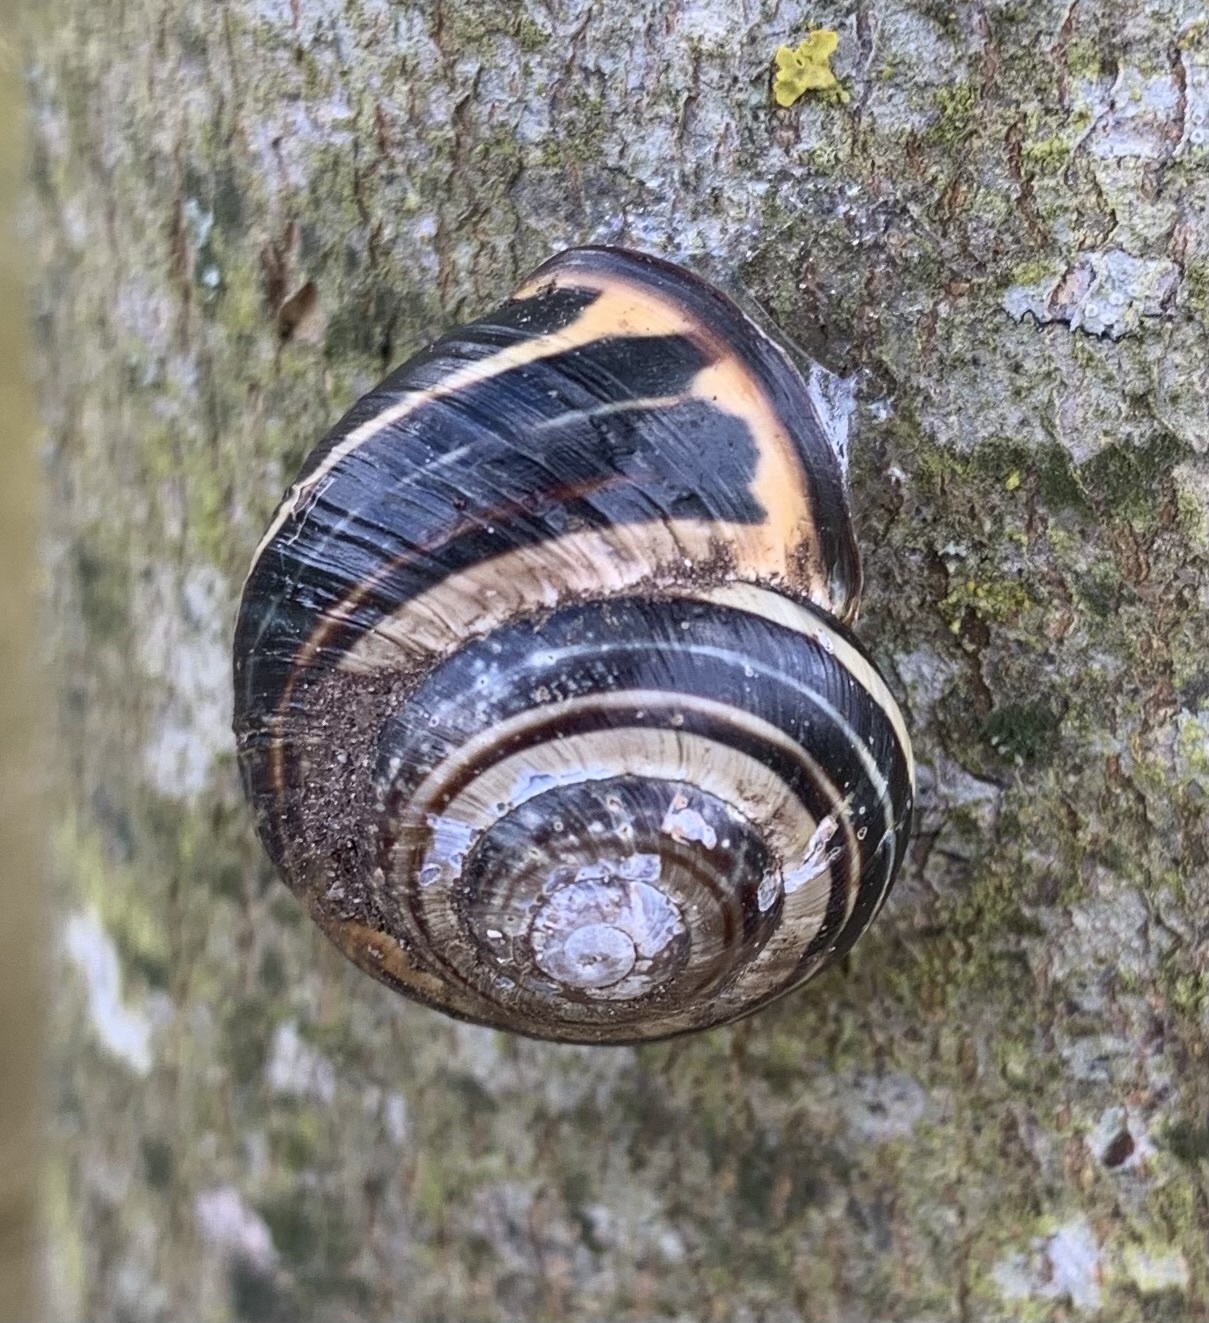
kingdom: Animalia
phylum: Mollusca
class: Gastropoda
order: Stylommatophora
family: Helicidae
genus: Cepaea
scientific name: Cepaea nemoralis
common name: Grovesnail
